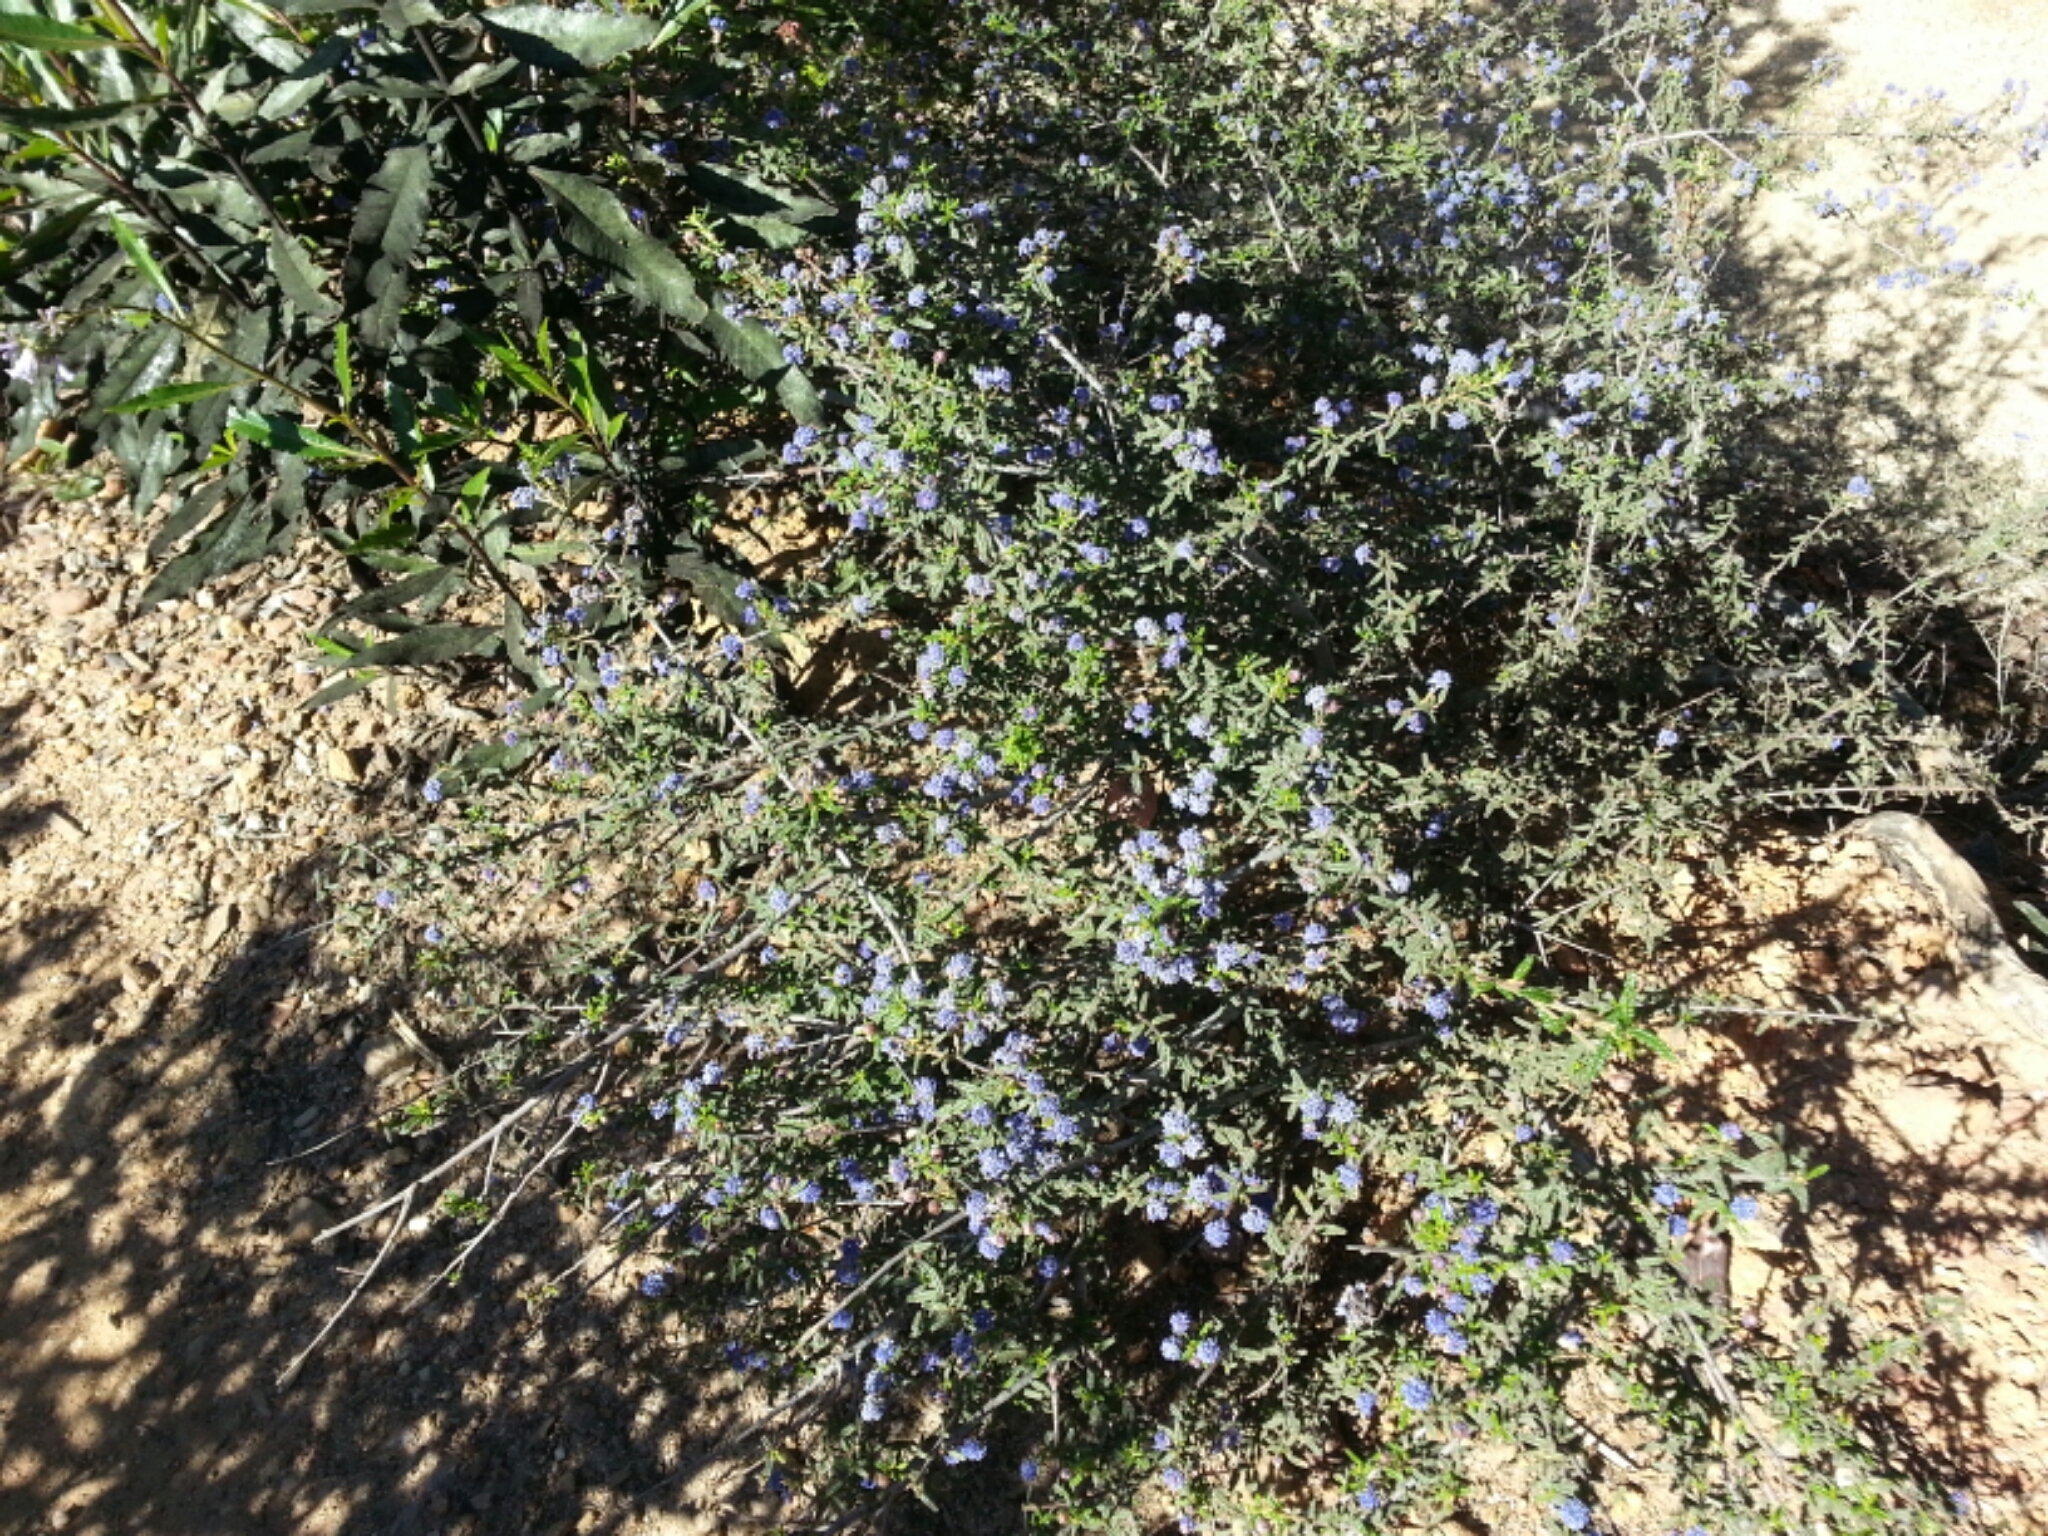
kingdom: Plantae
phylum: Tracheophyta
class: Magnoliopsida
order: Rosales
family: Rhamnaceae
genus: Ceanothus
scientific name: Ceanothus papillosus
